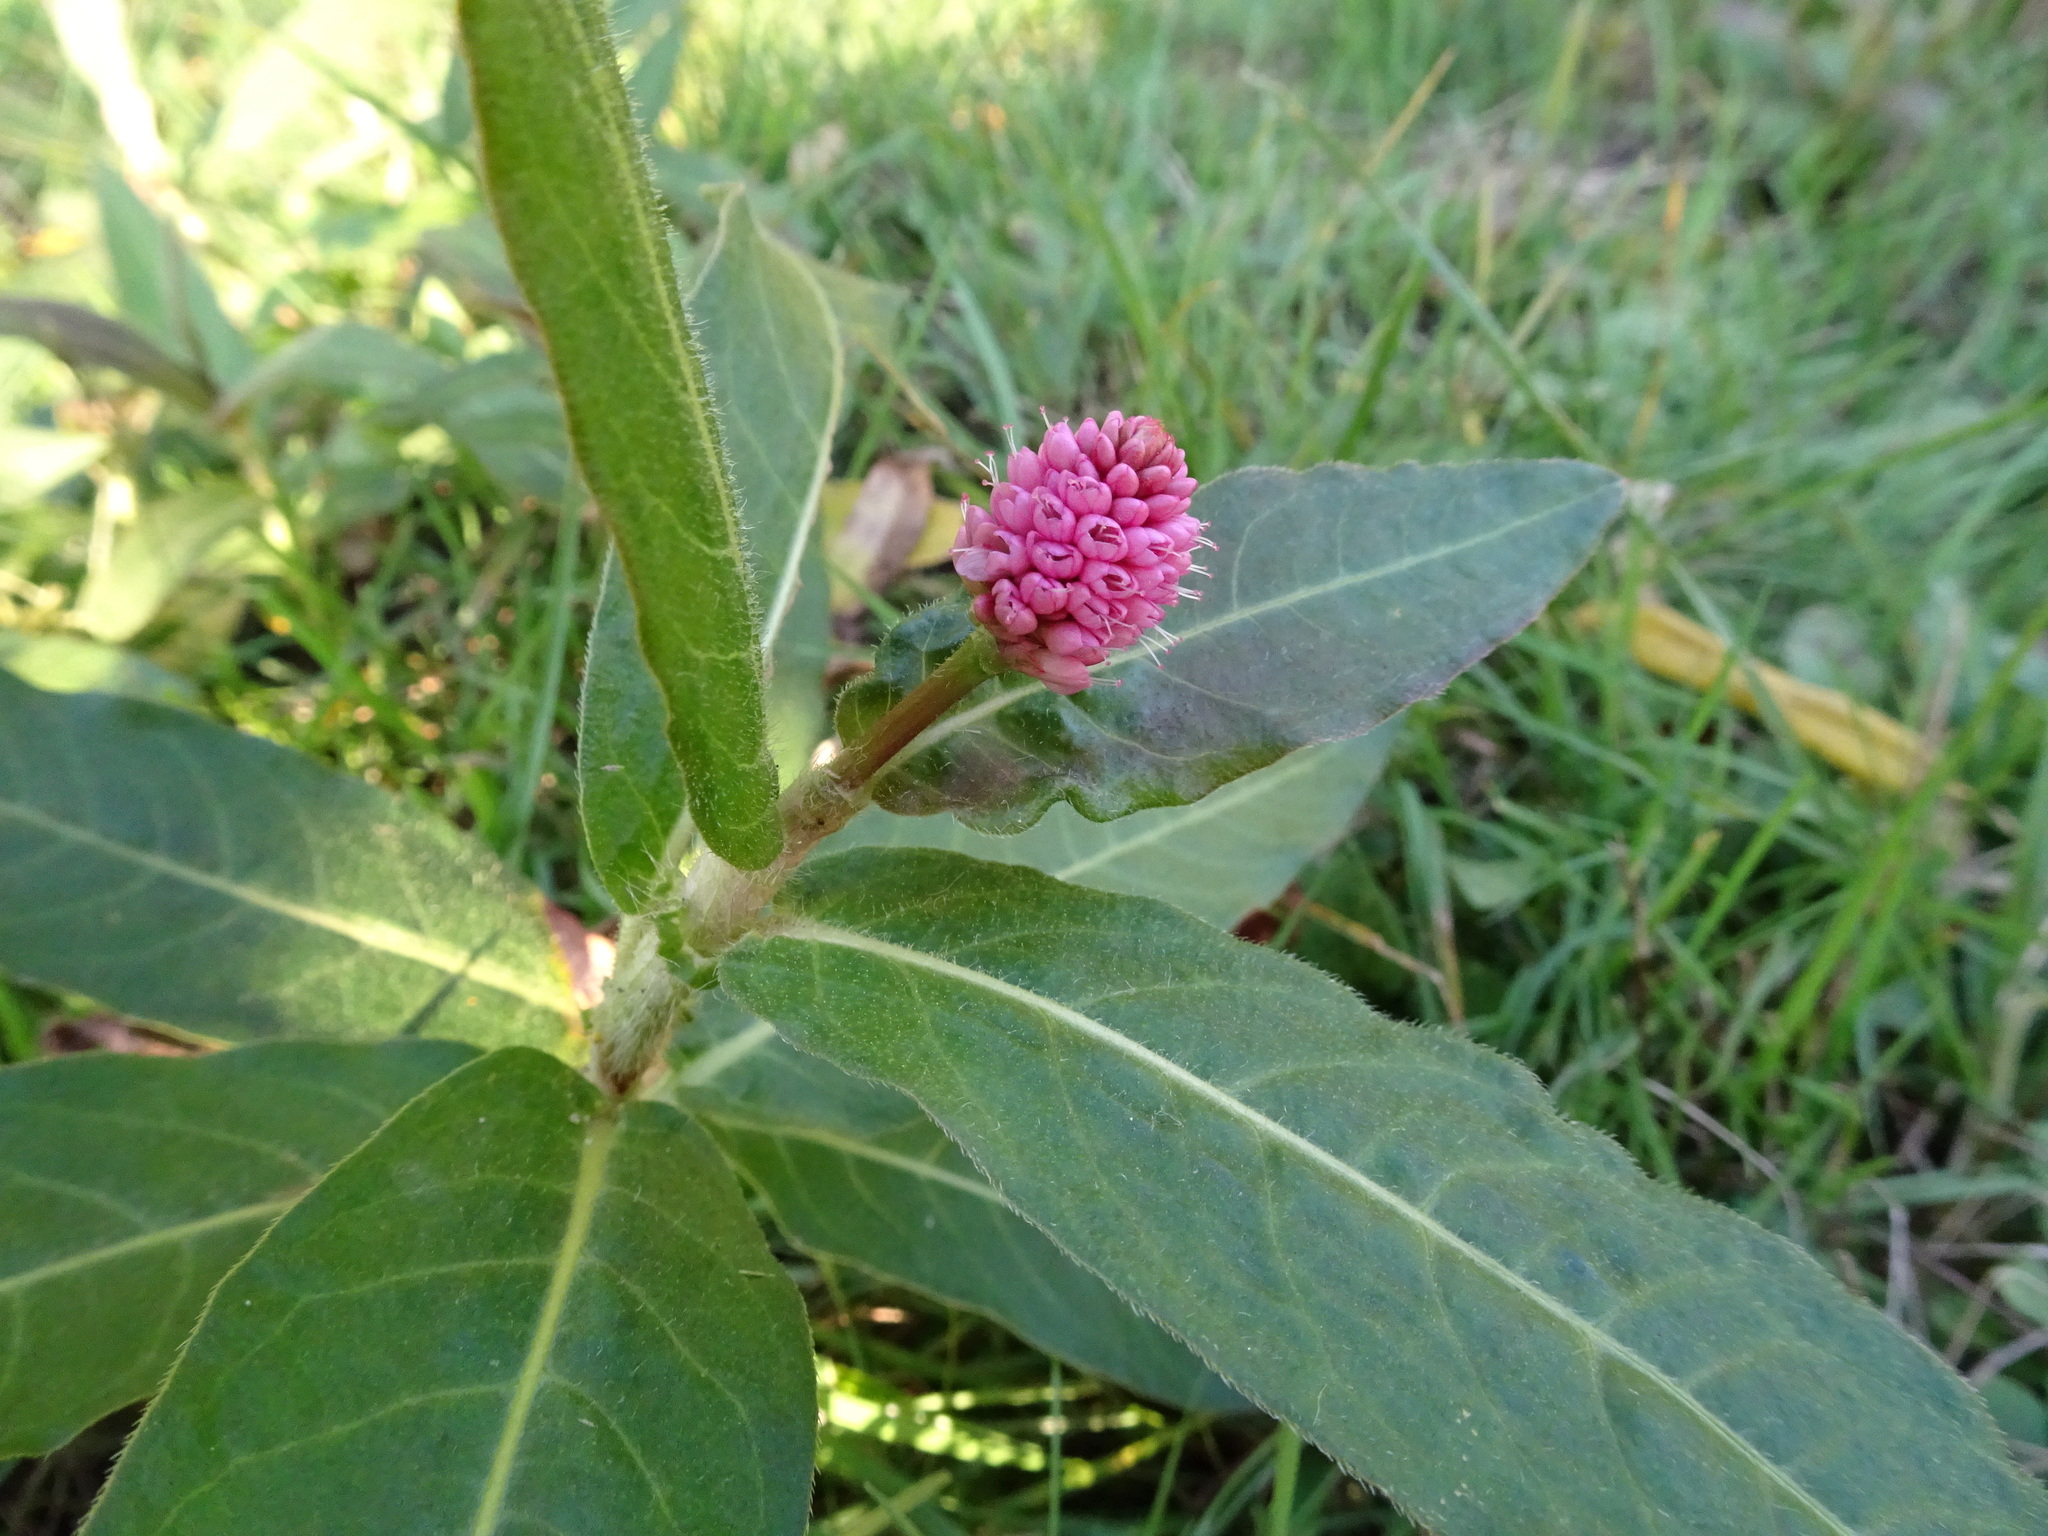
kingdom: Plantae
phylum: Tracheophyta
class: Magnoliopsida
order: Caryophyllales
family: Polygonaceae
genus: Persicaria
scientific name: Persicaria amphibia
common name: Amphibious bistort
